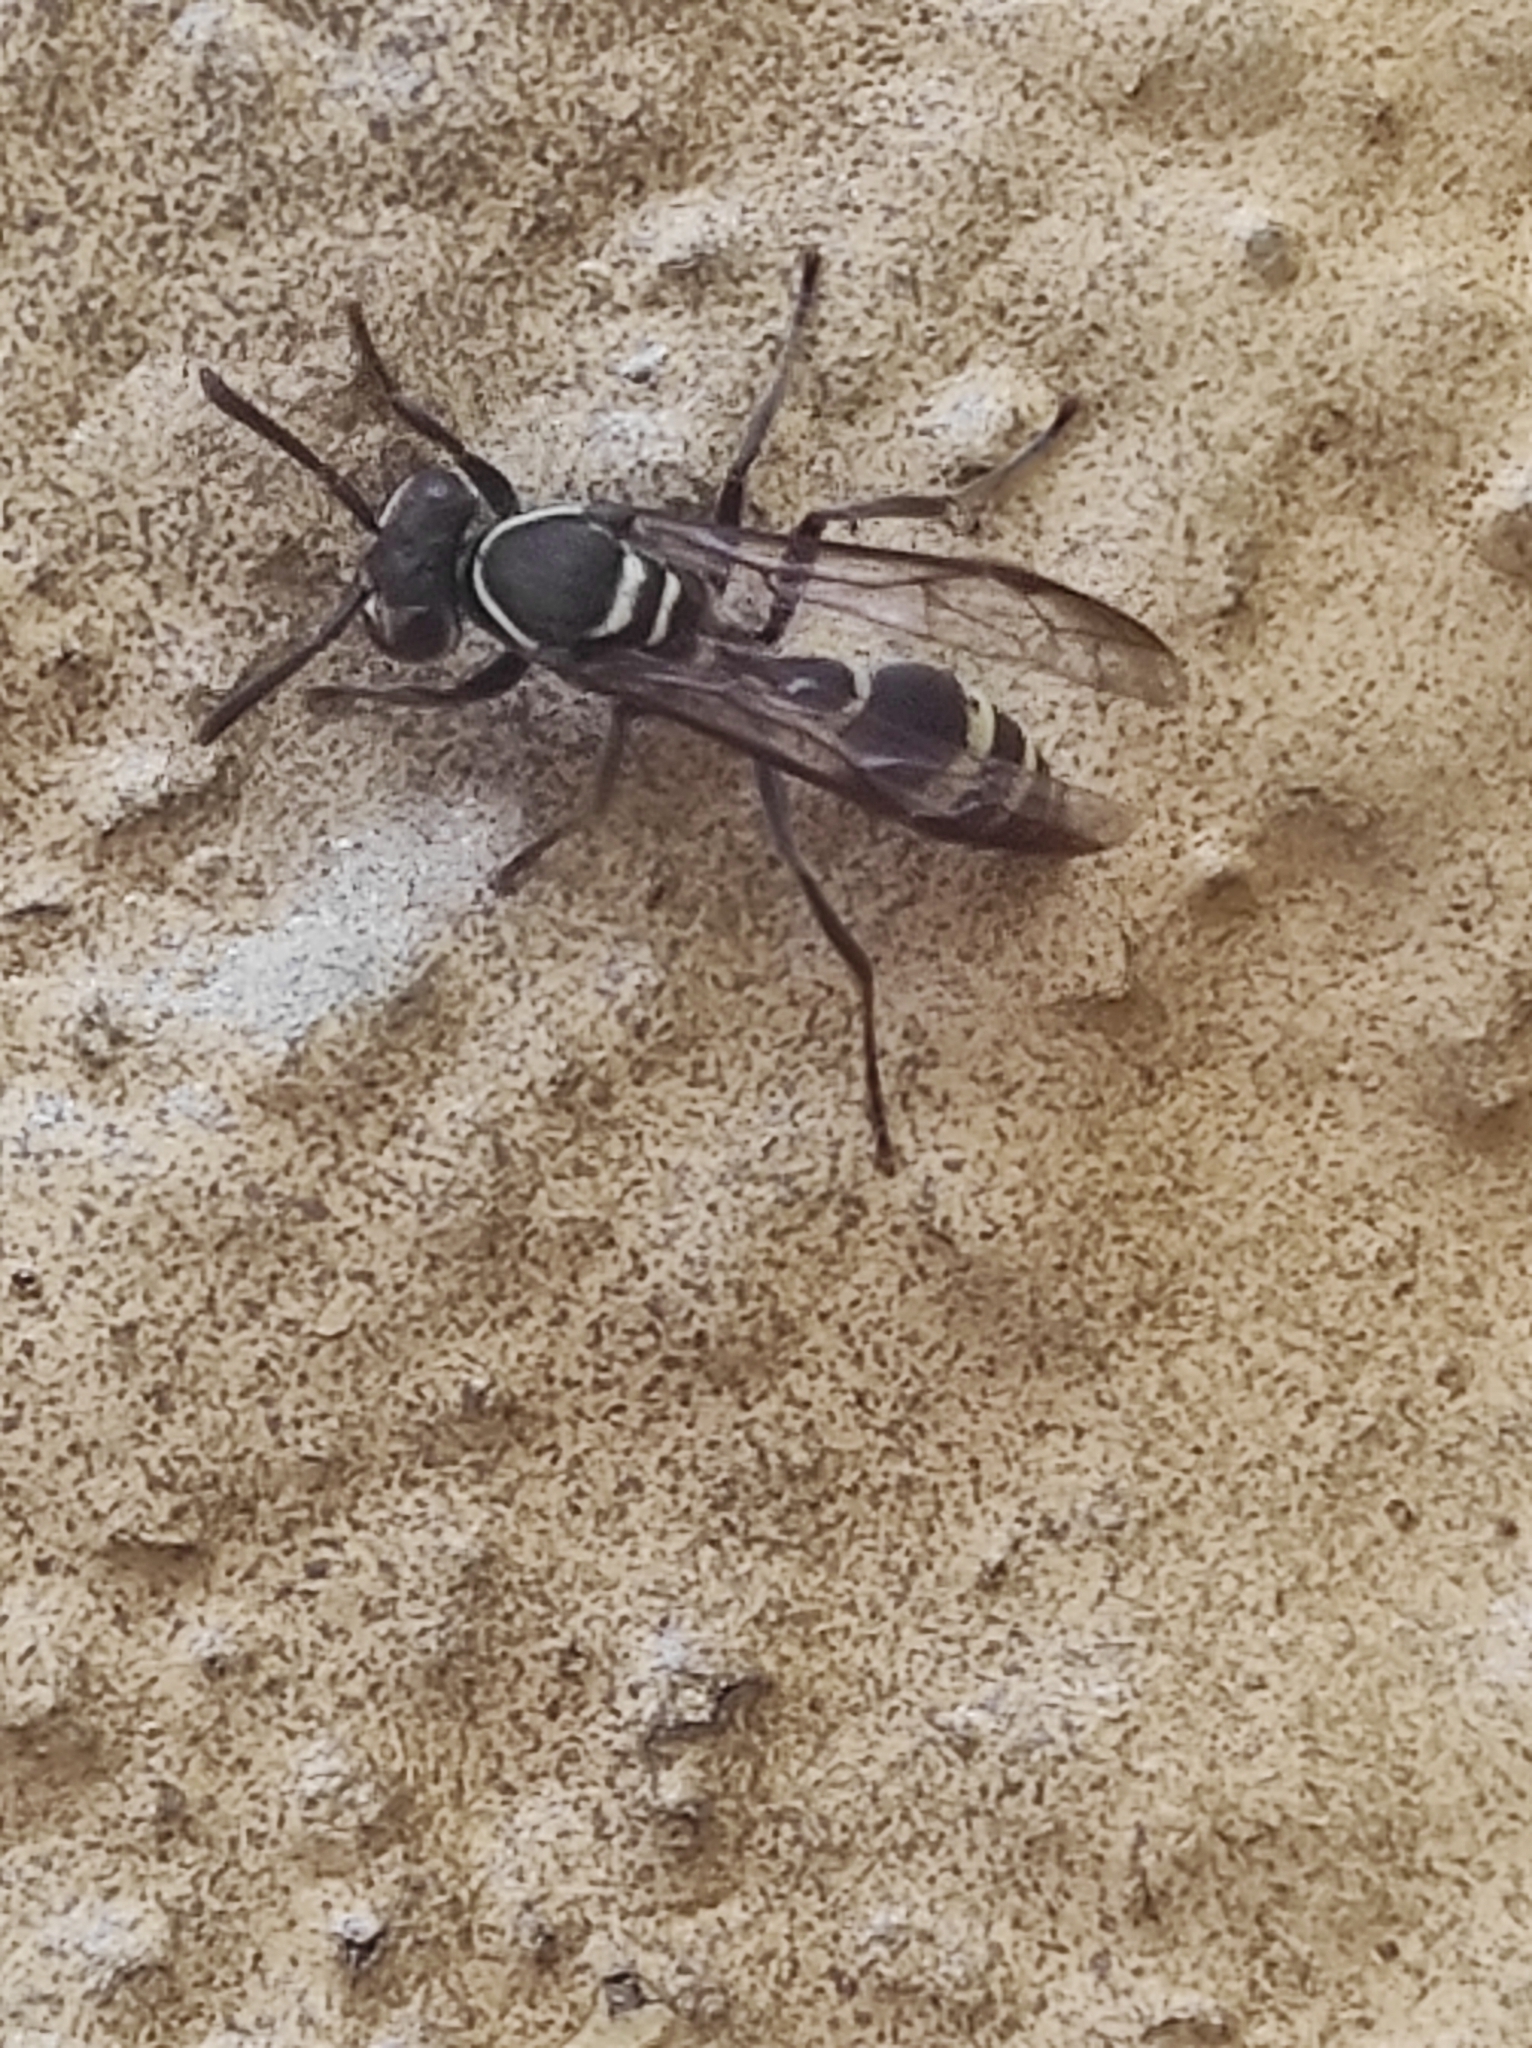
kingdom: Animalia
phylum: Arthropoda
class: Insecta
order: Hymenoptera
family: Eumenidae
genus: Polybia
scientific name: Polybia occidentalis
